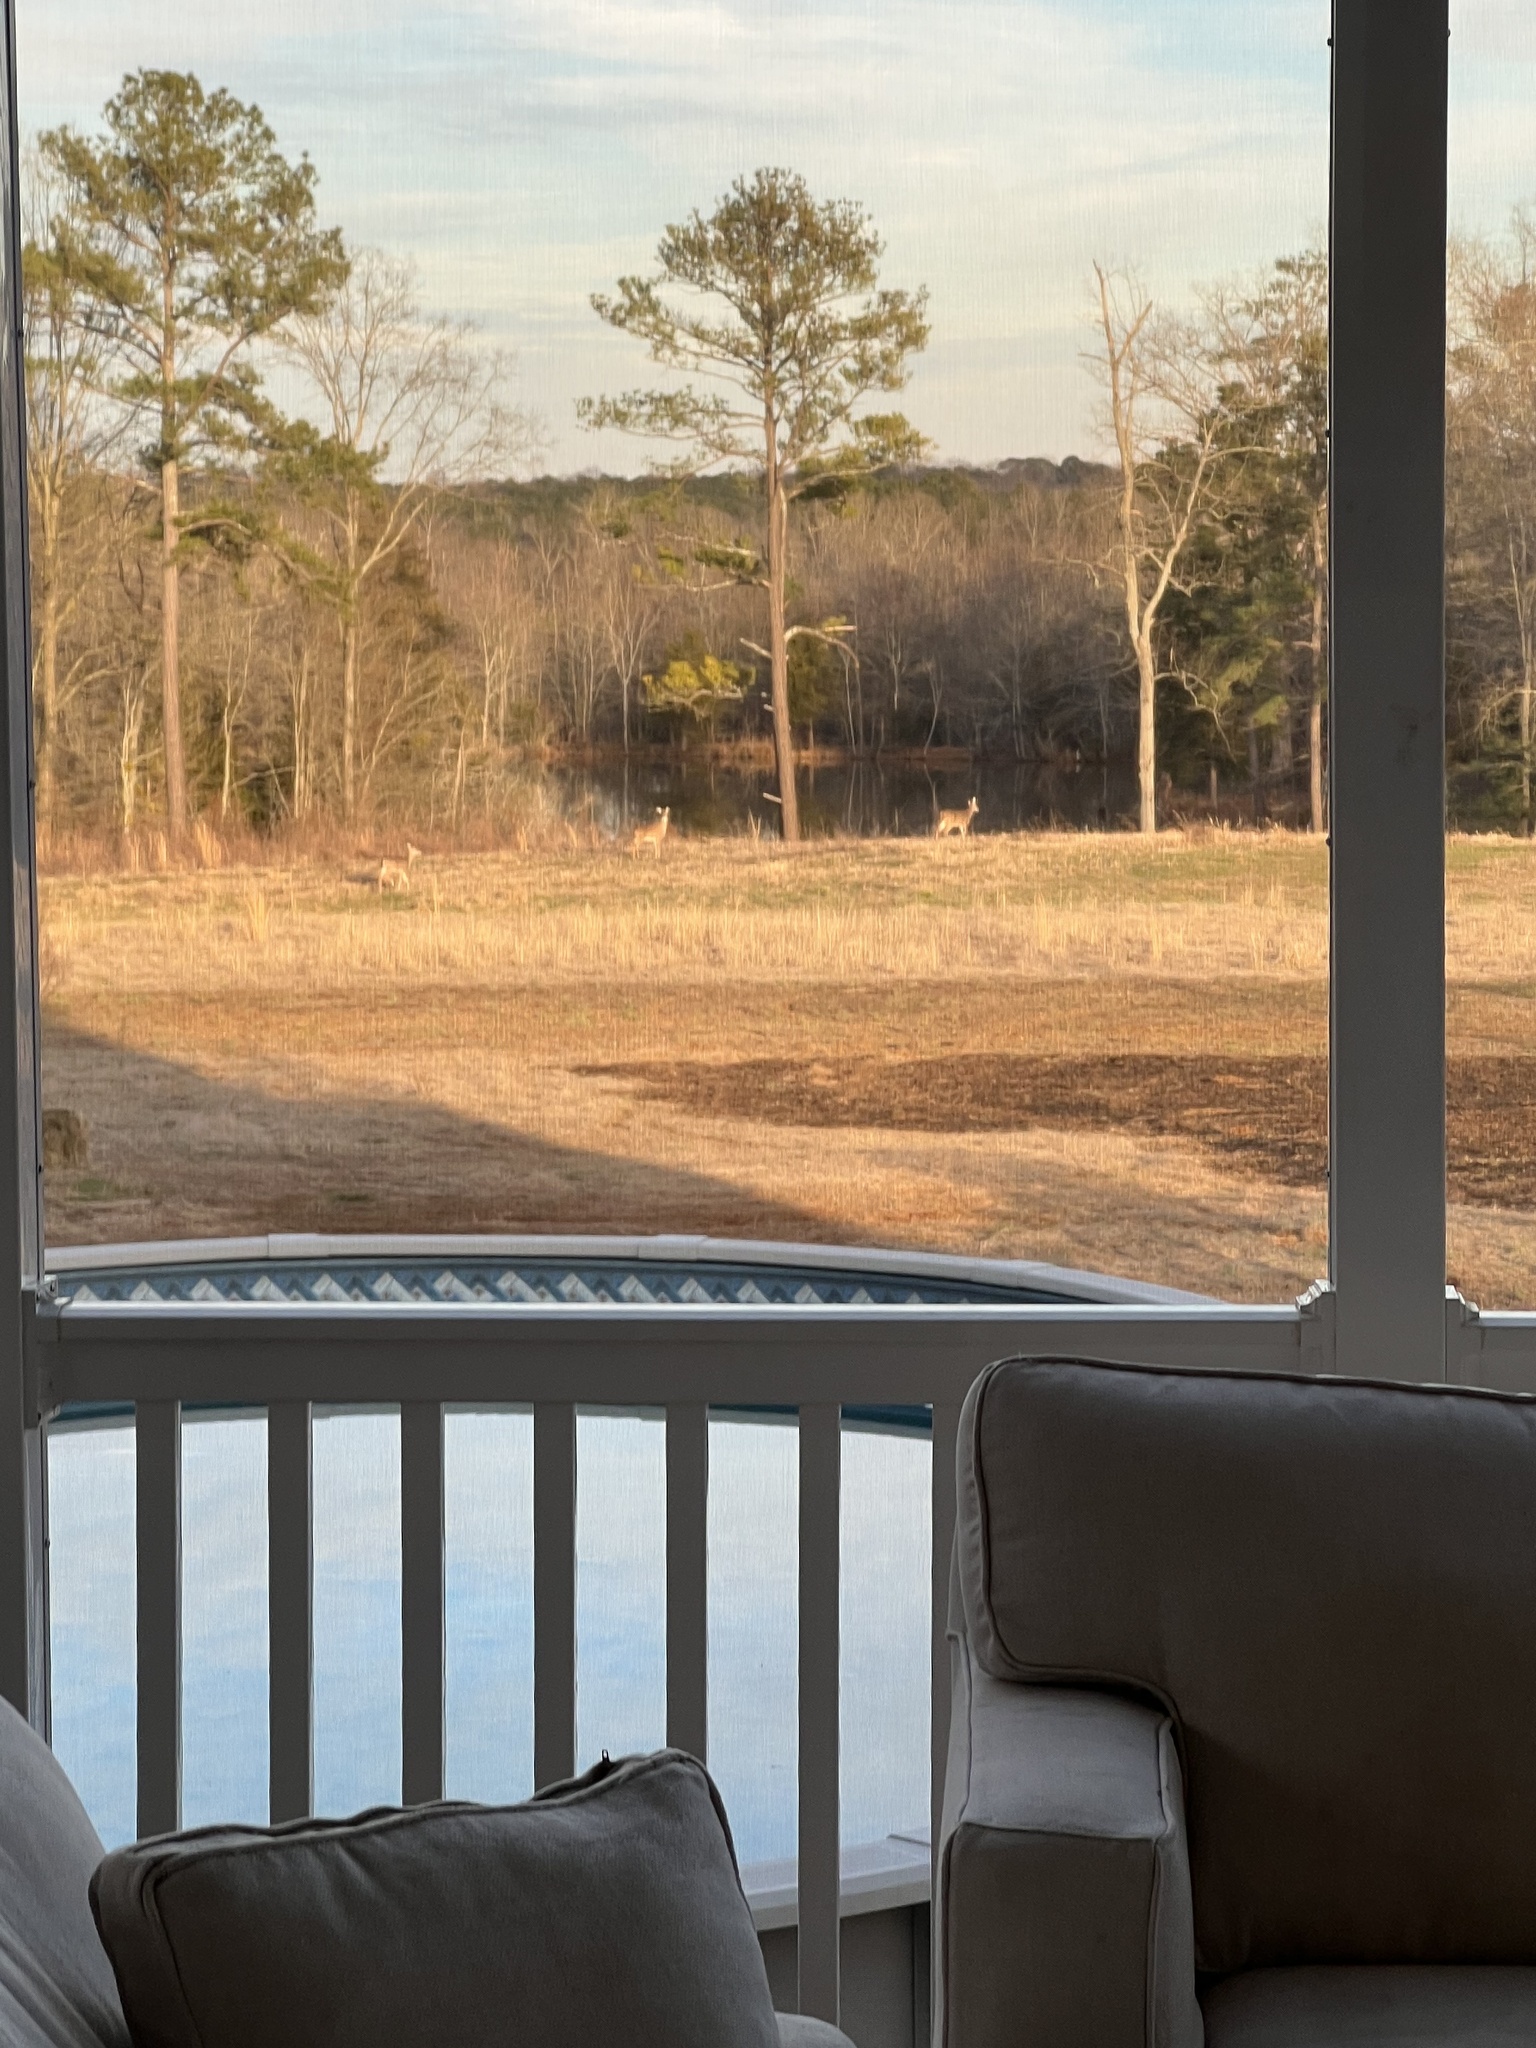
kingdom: Animalia
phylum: Chordata
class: Mammalia
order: Artiodactyla
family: Cervidae
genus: Odocoileus
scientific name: Odocoileus virginianus
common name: White-tailed deer
